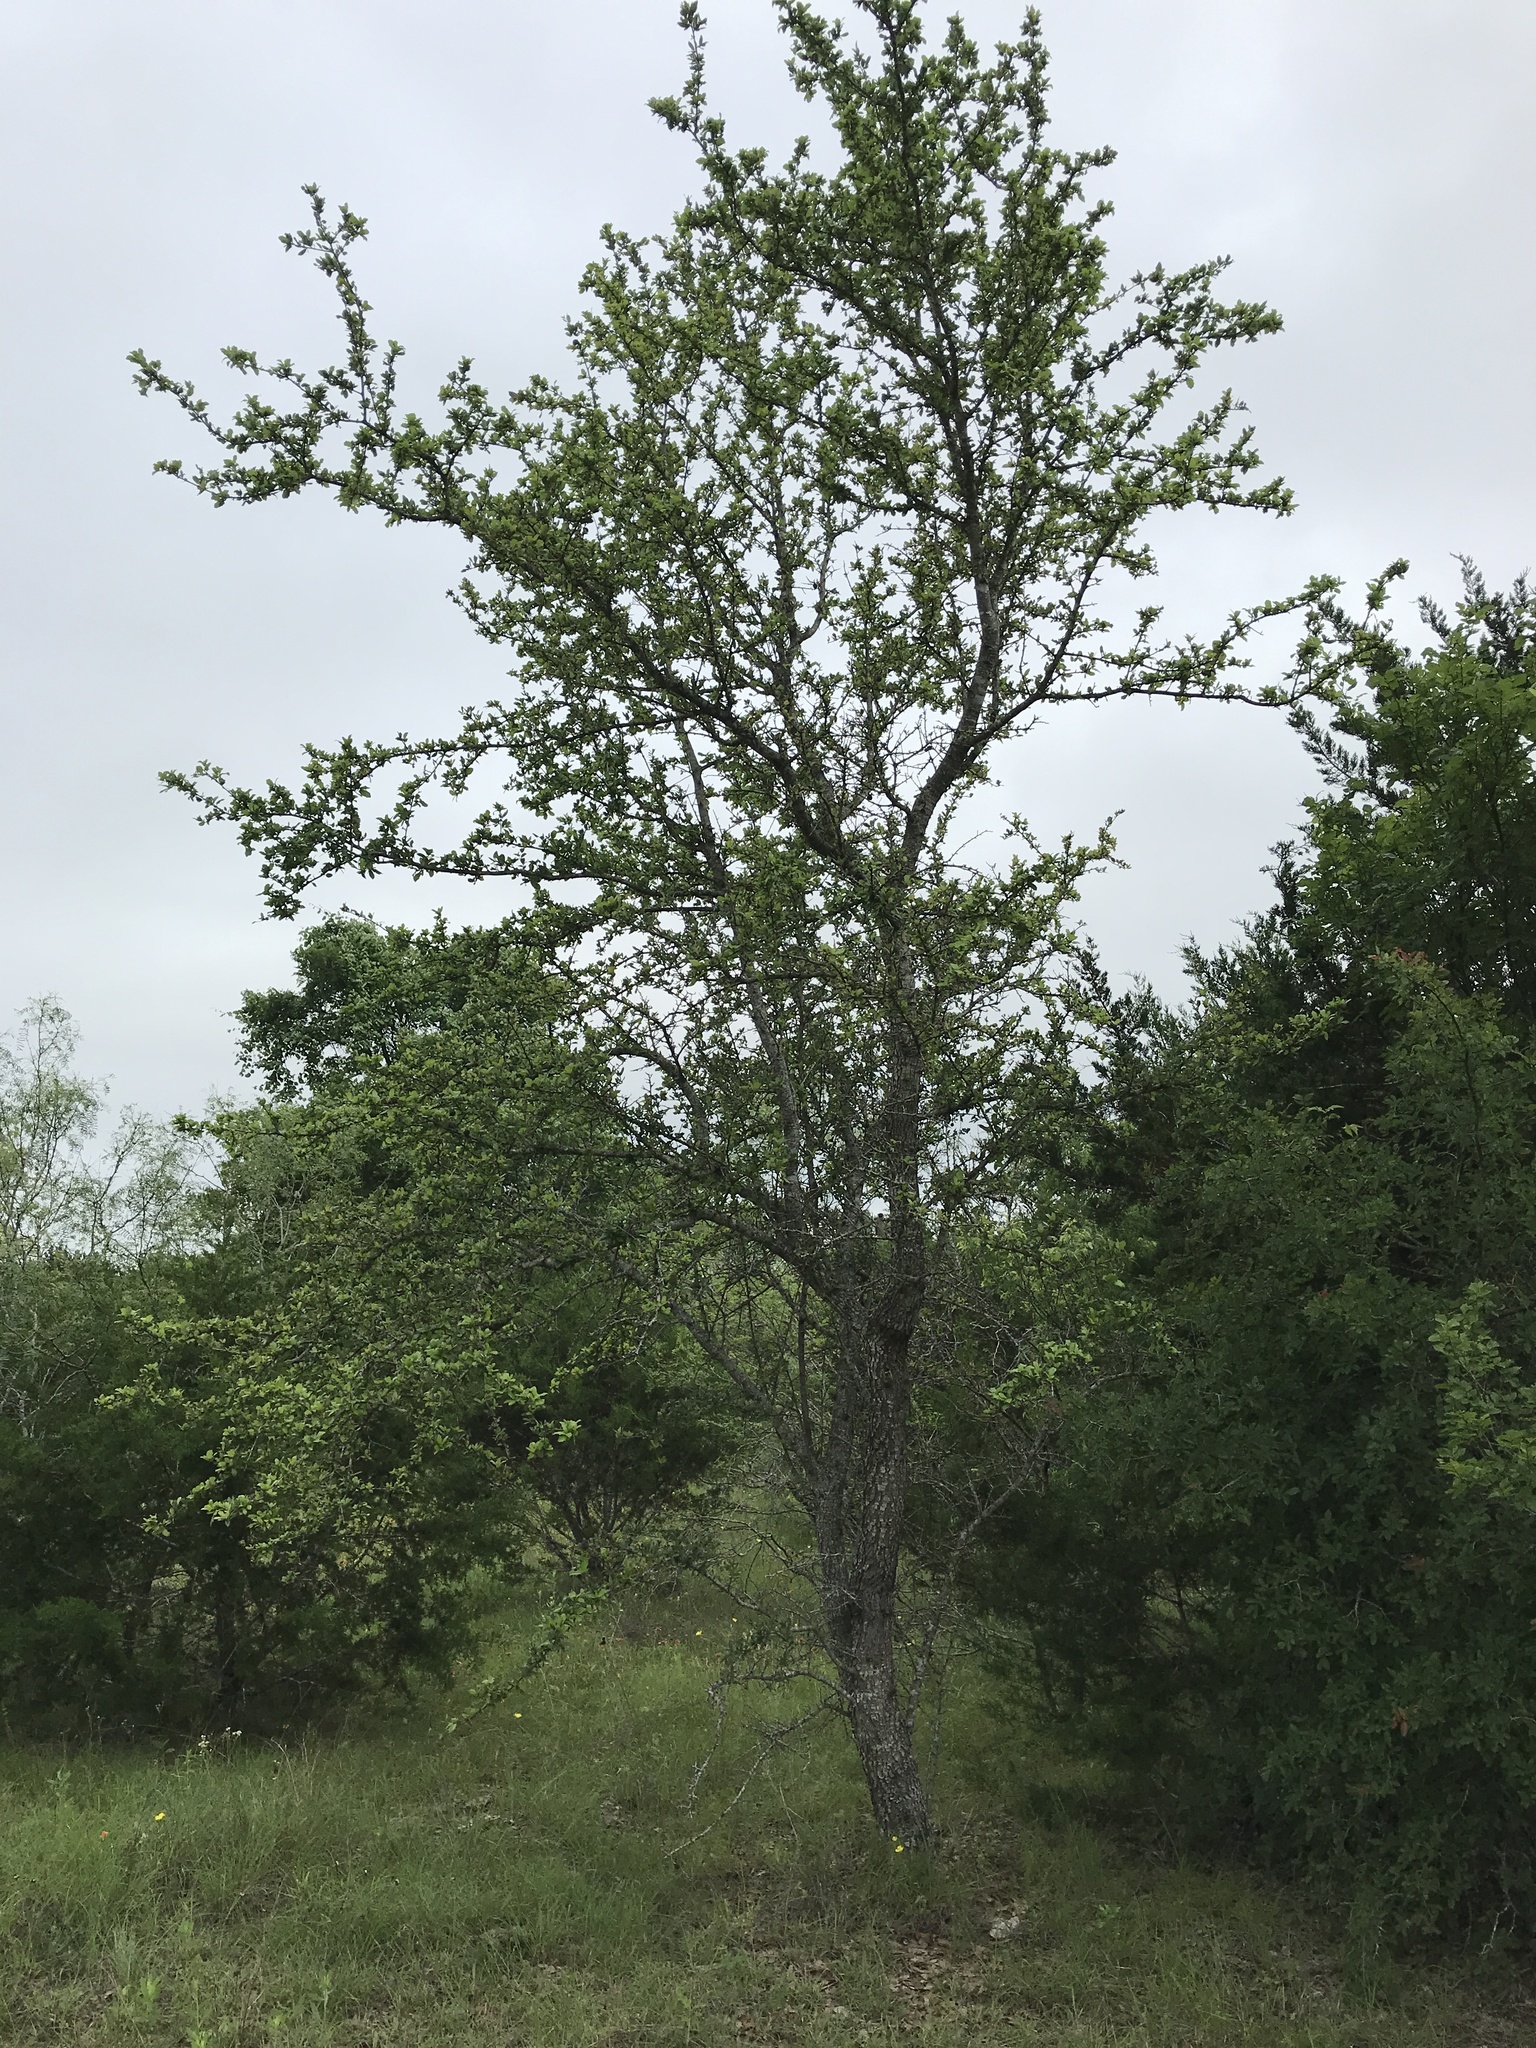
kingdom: Plantae
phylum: Tracheophyta
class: Magnoliopsida
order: Fagales
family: Fagaceae
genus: Quercus
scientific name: Quercus fusiformis
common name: Texas live oak
